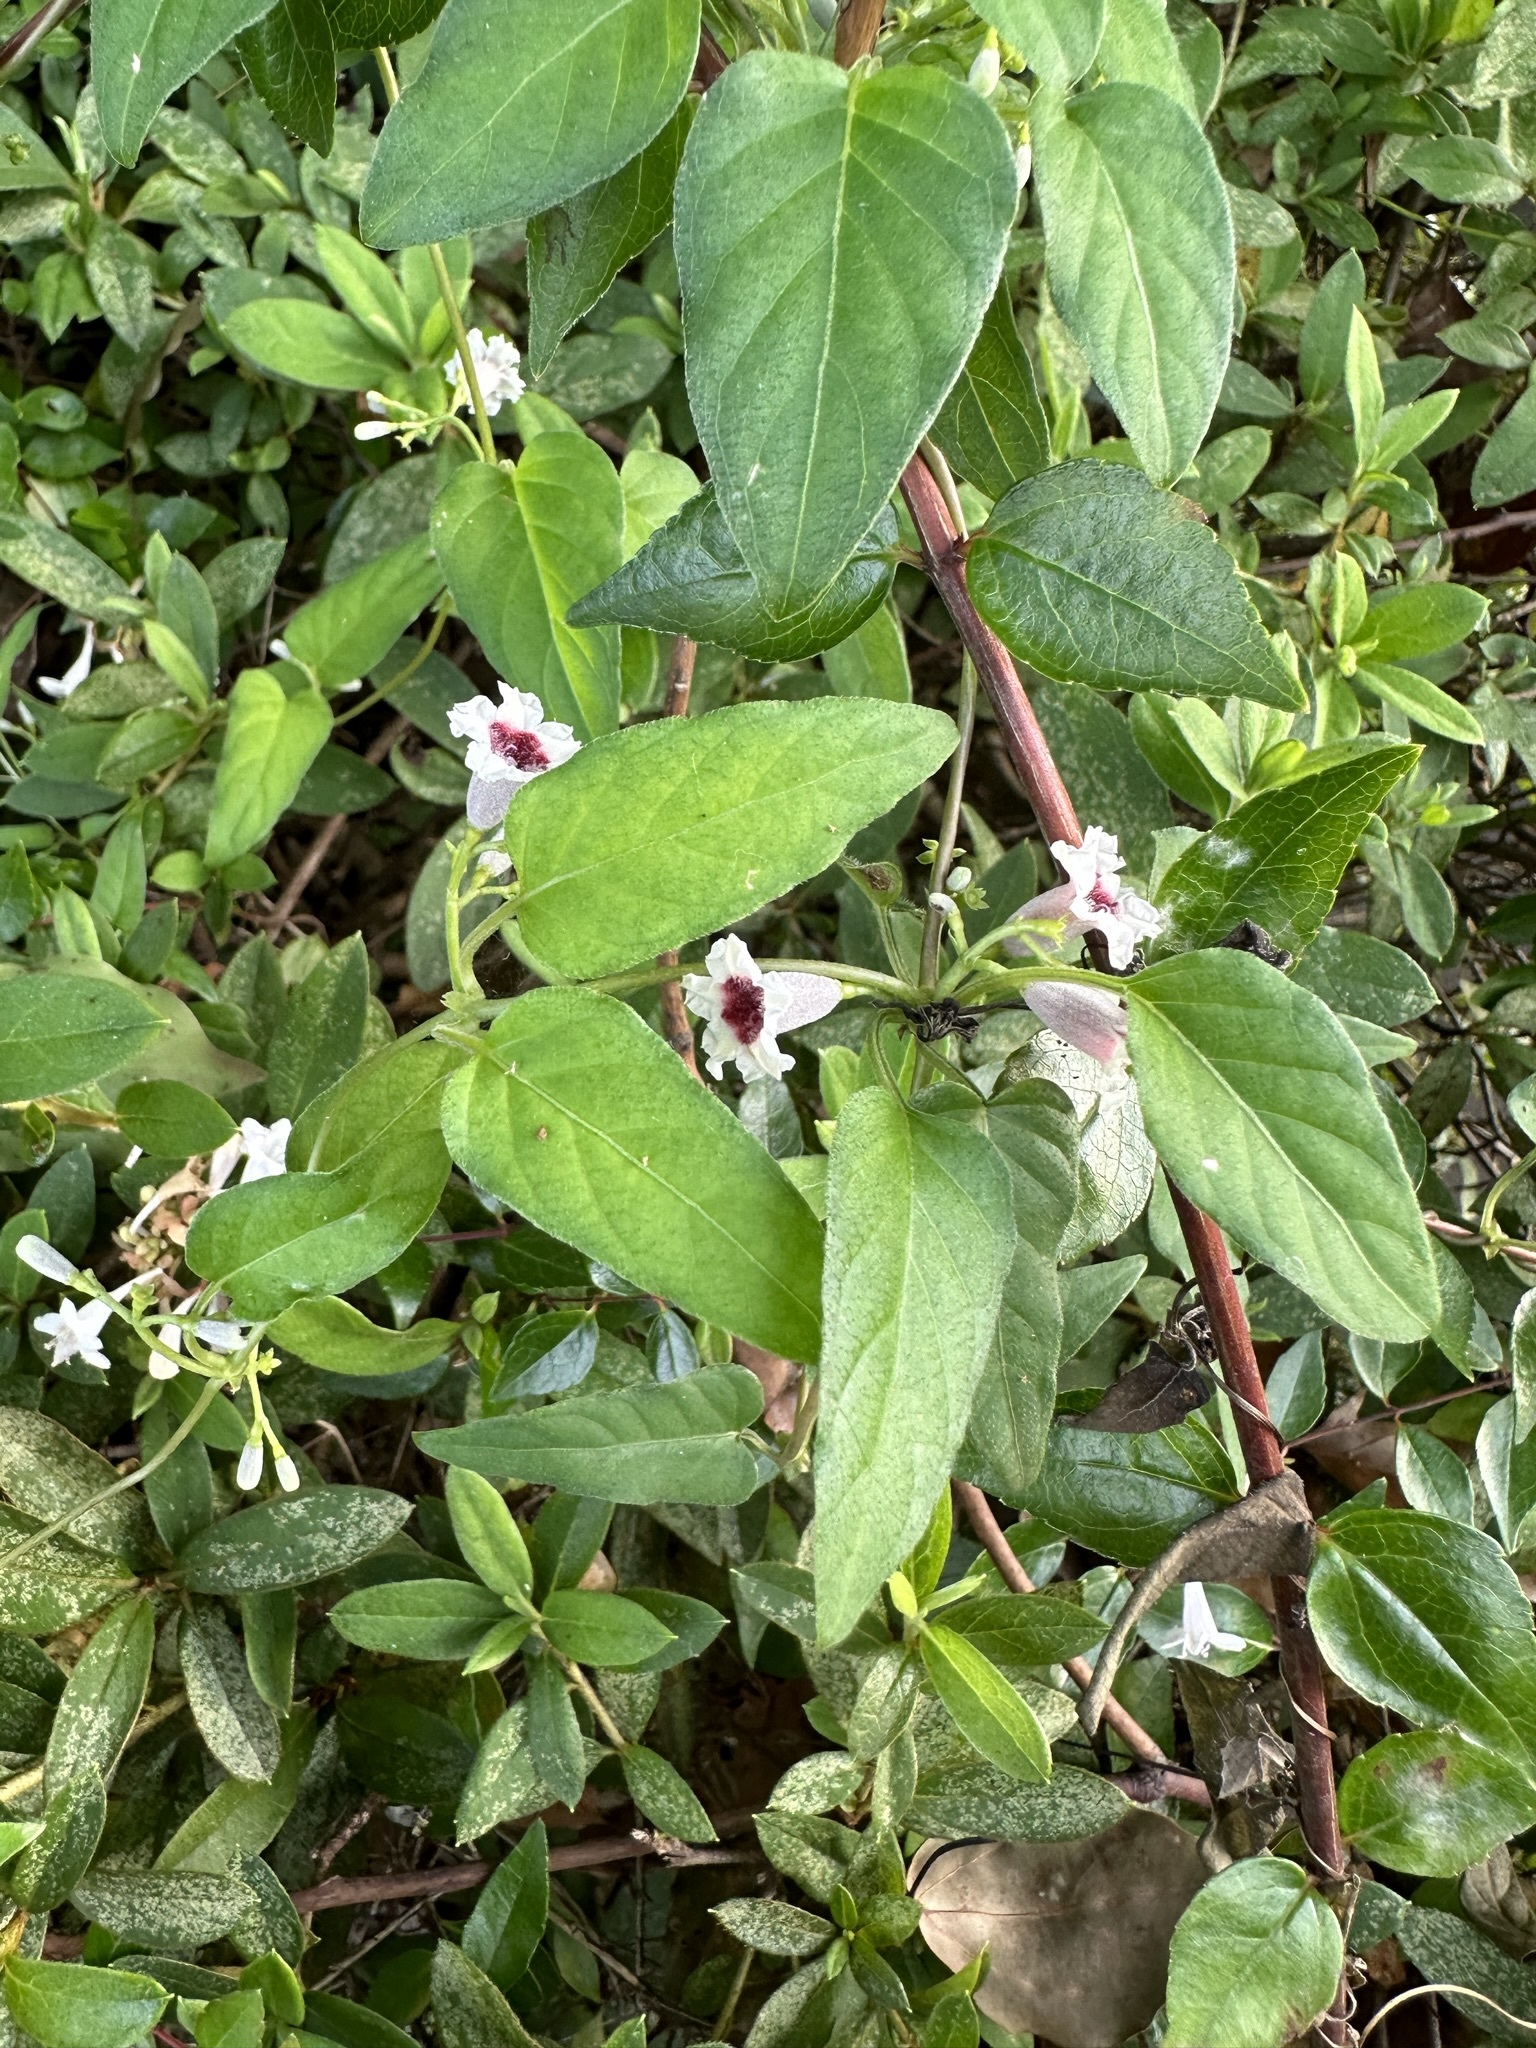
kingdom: Plantae
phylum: Tracheophyta
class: Magnoliopsida
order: Gentianales
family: Rubiaceae
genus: Paederia
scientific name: Paederia foetida
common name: Stinkvine
